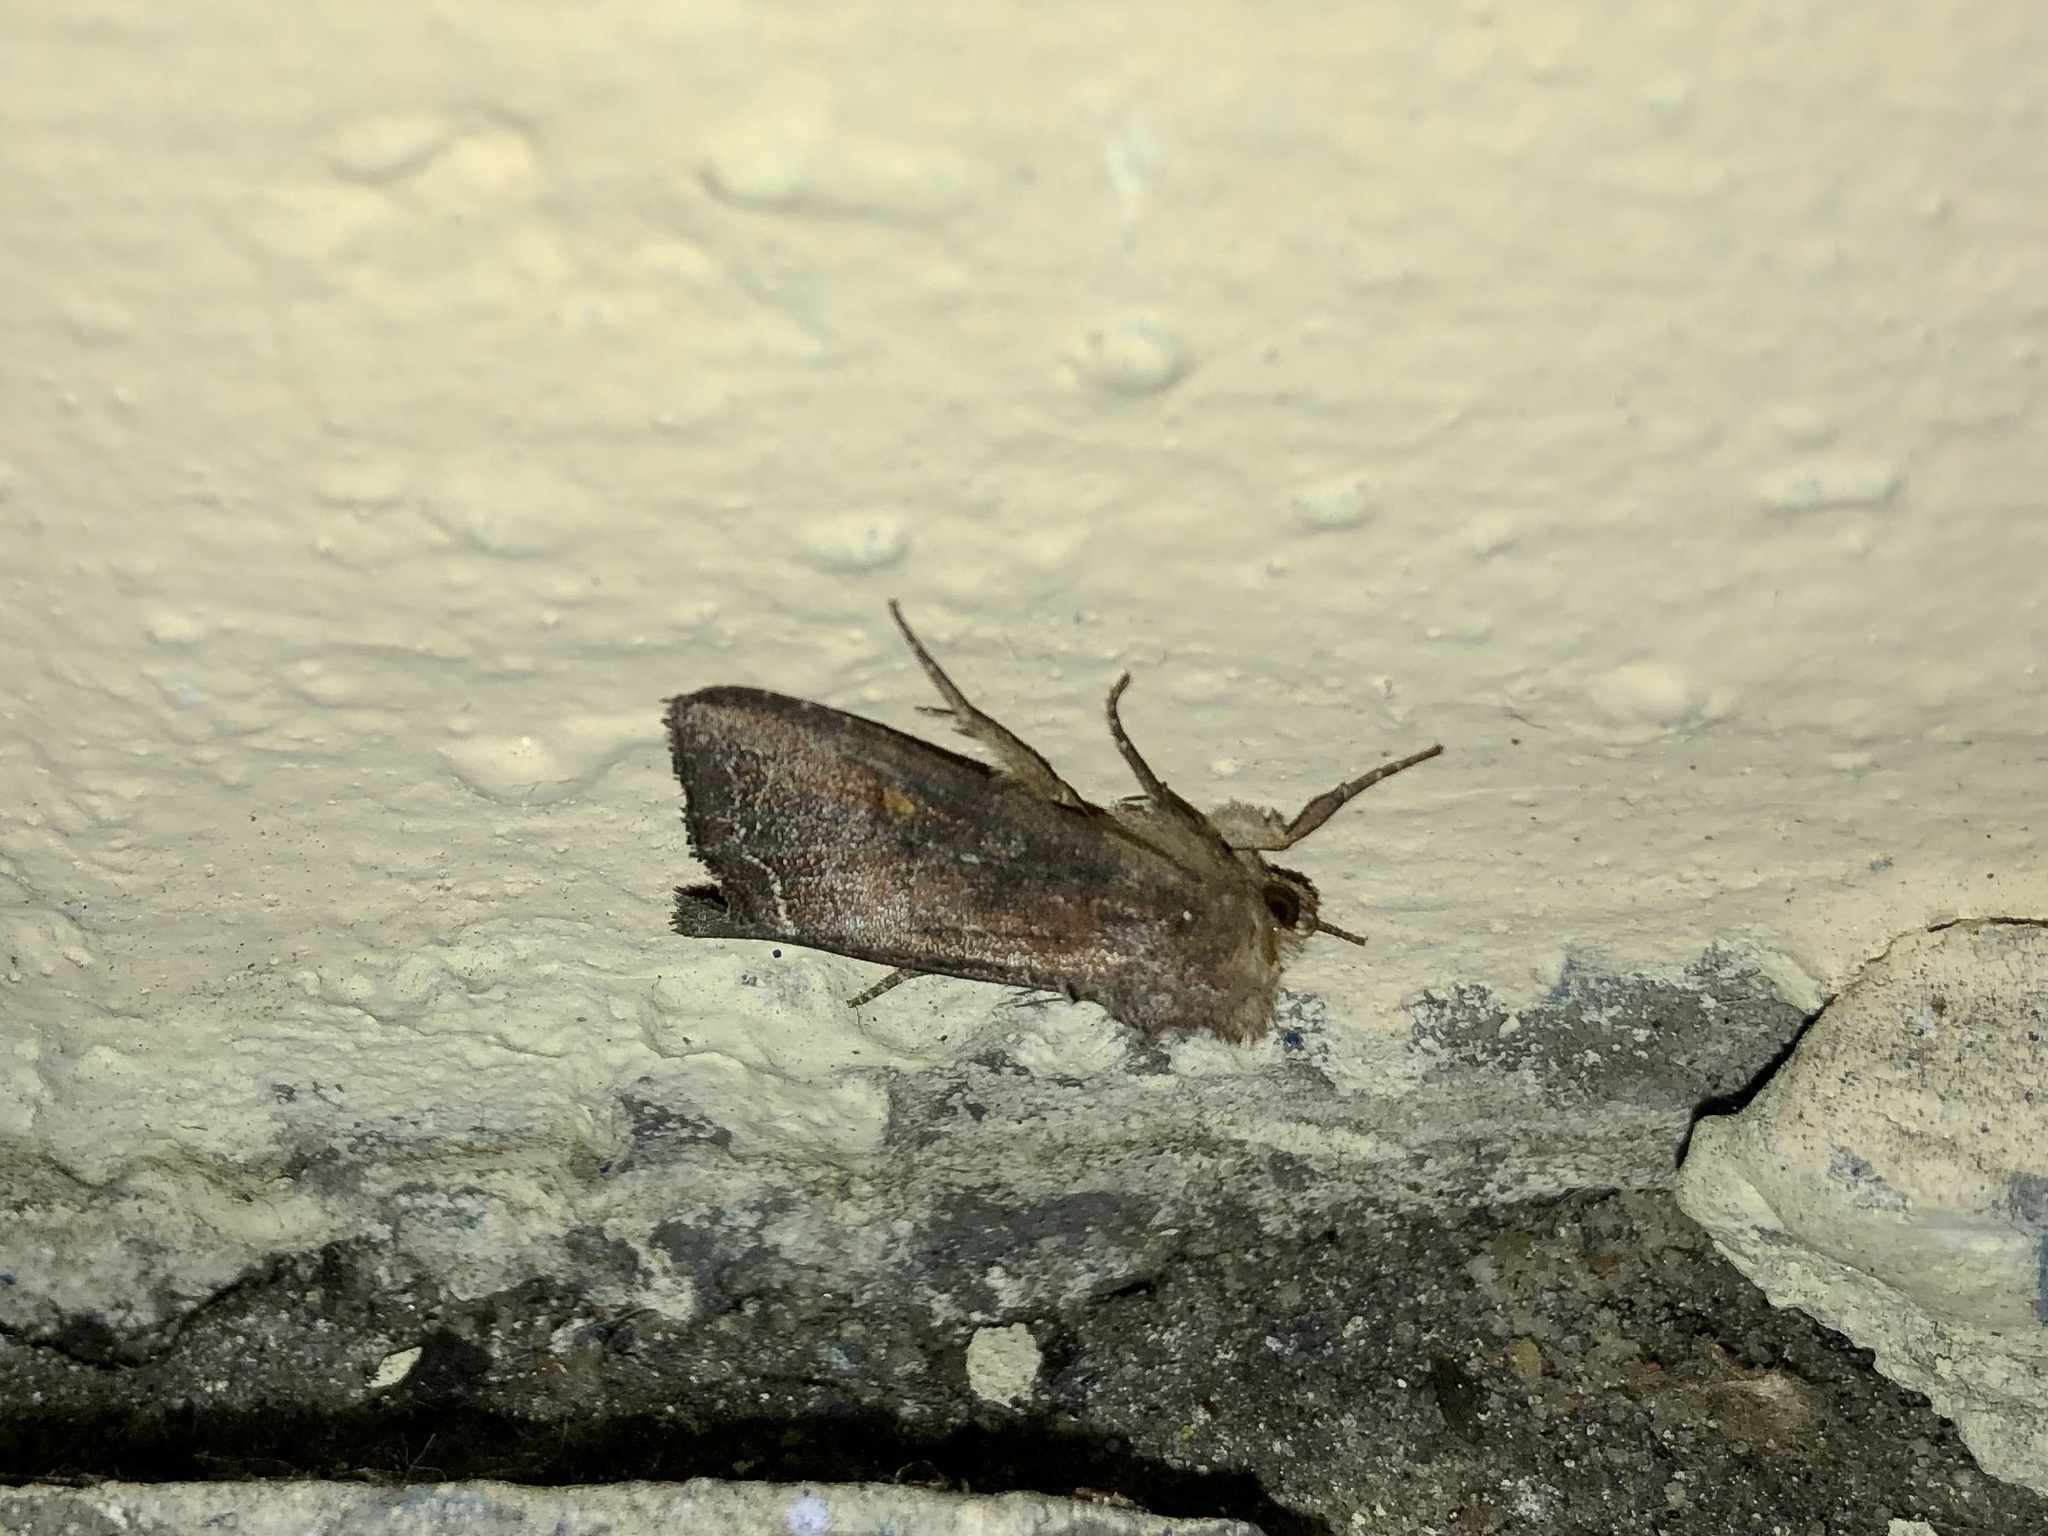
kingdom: Animalia
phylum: Arthropoda
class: Insecta
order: Lepidoptera
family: Noctuidae
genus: Lacanobia
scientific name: Lacanobia oleracea
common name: Bright-line brown-eye
